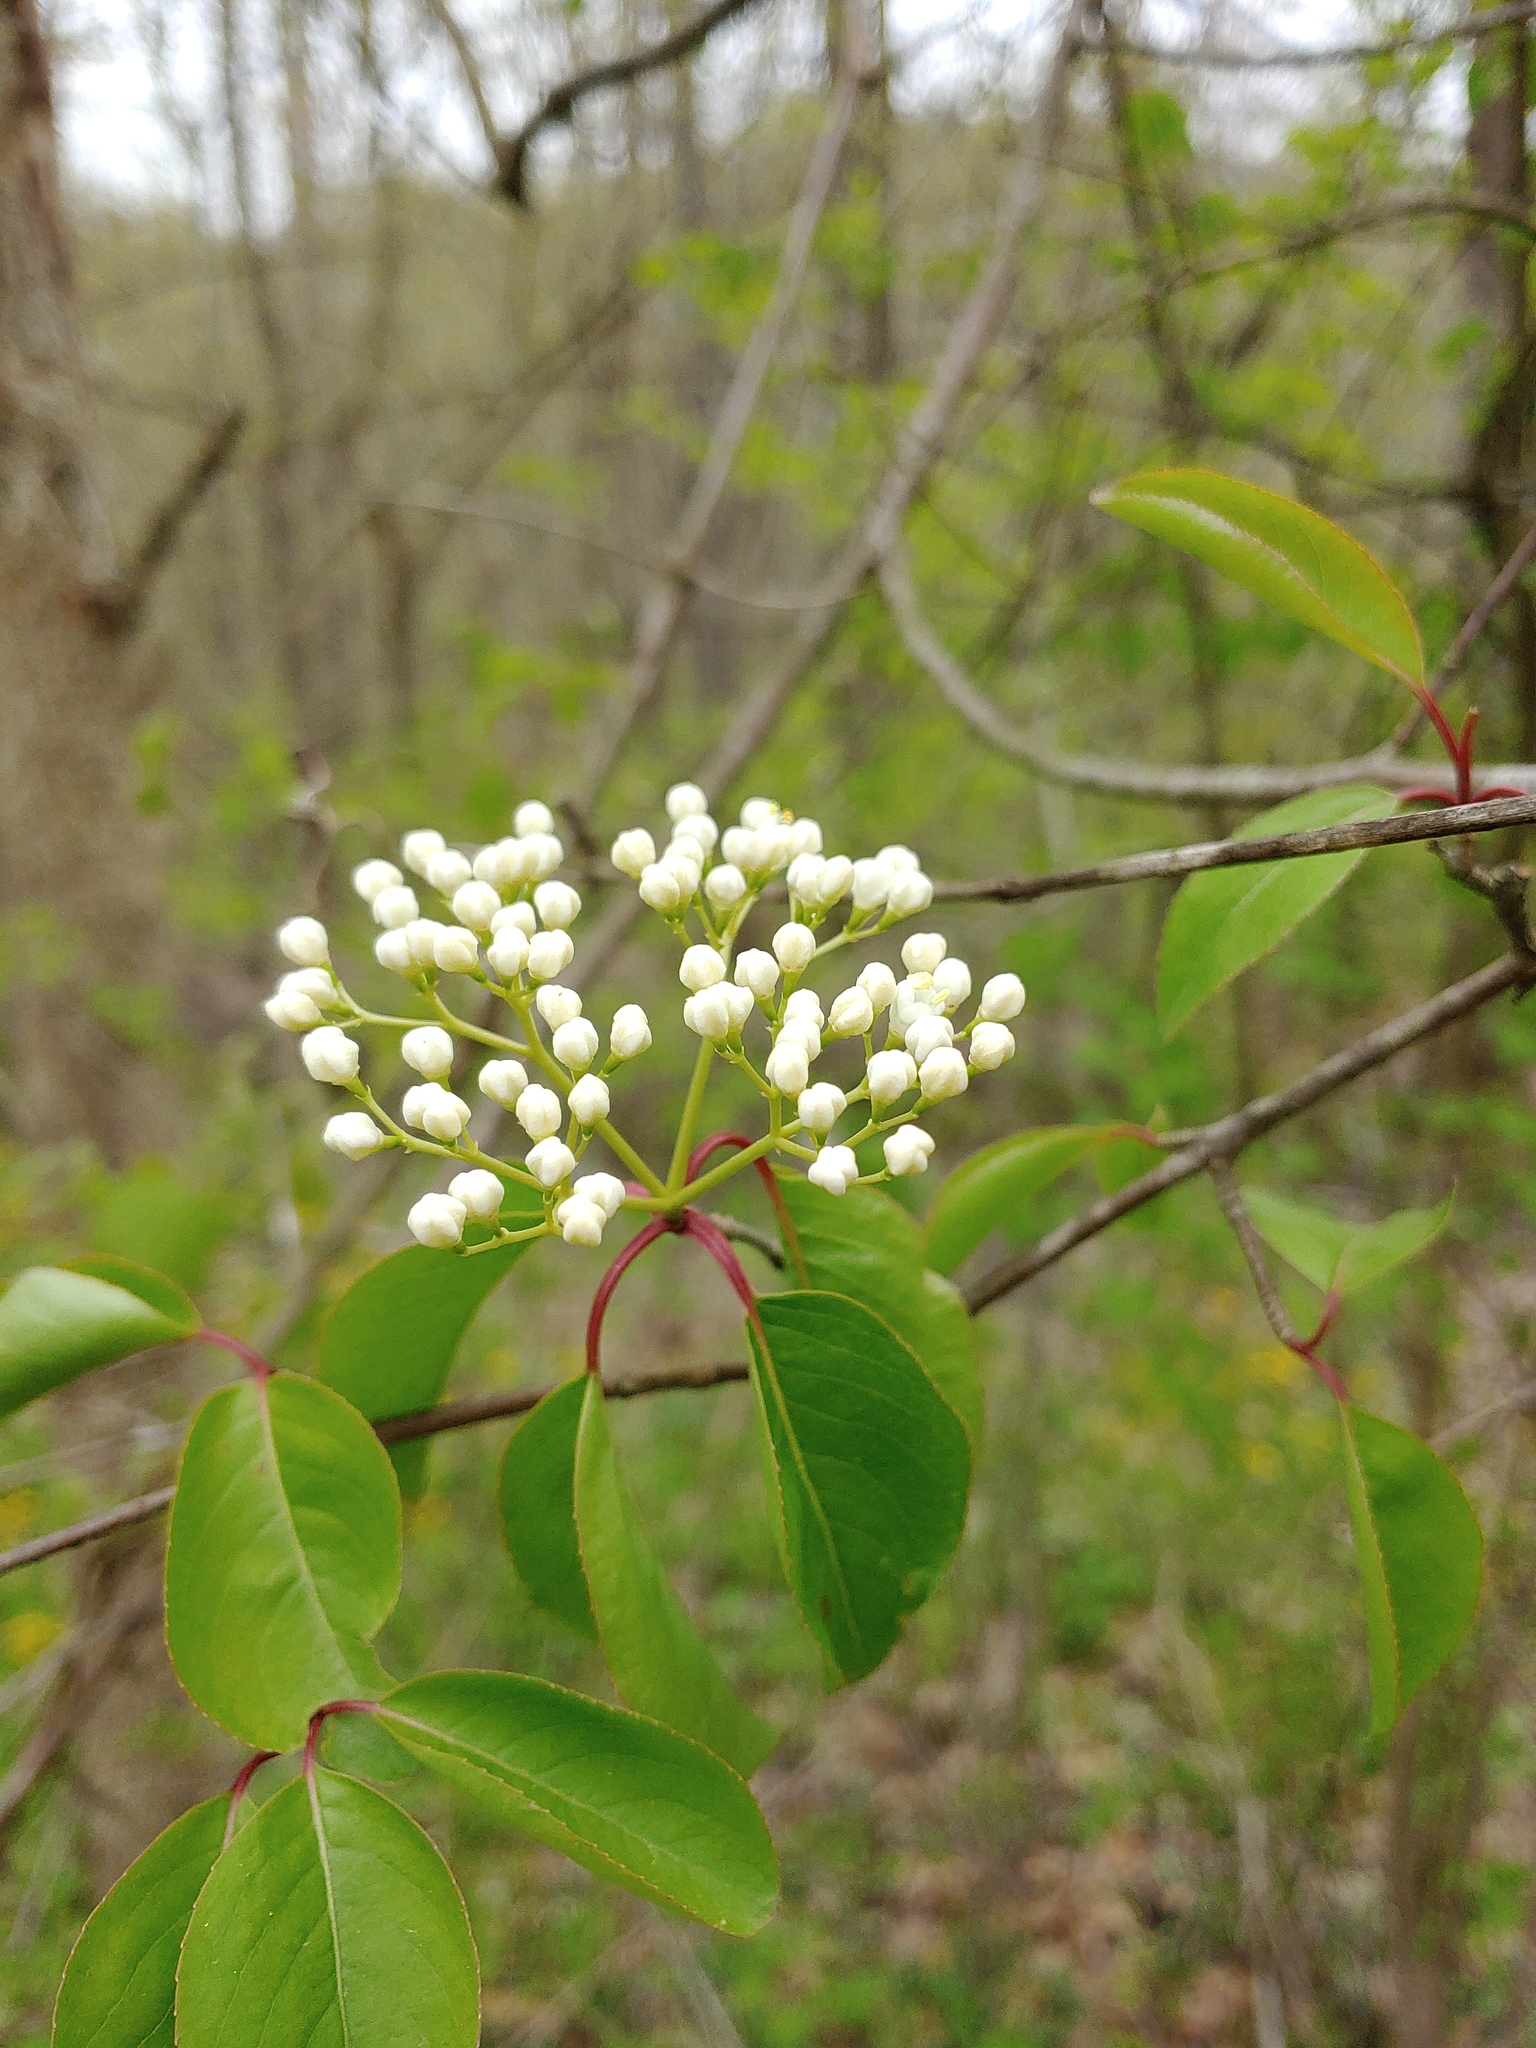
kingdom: Plantae
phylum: Tracheophyta
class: Magnoliopsida
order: Dipsacales
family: Viburnaceae
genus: Viburnum
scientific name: Viburnum prunifolium
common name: Black haw
